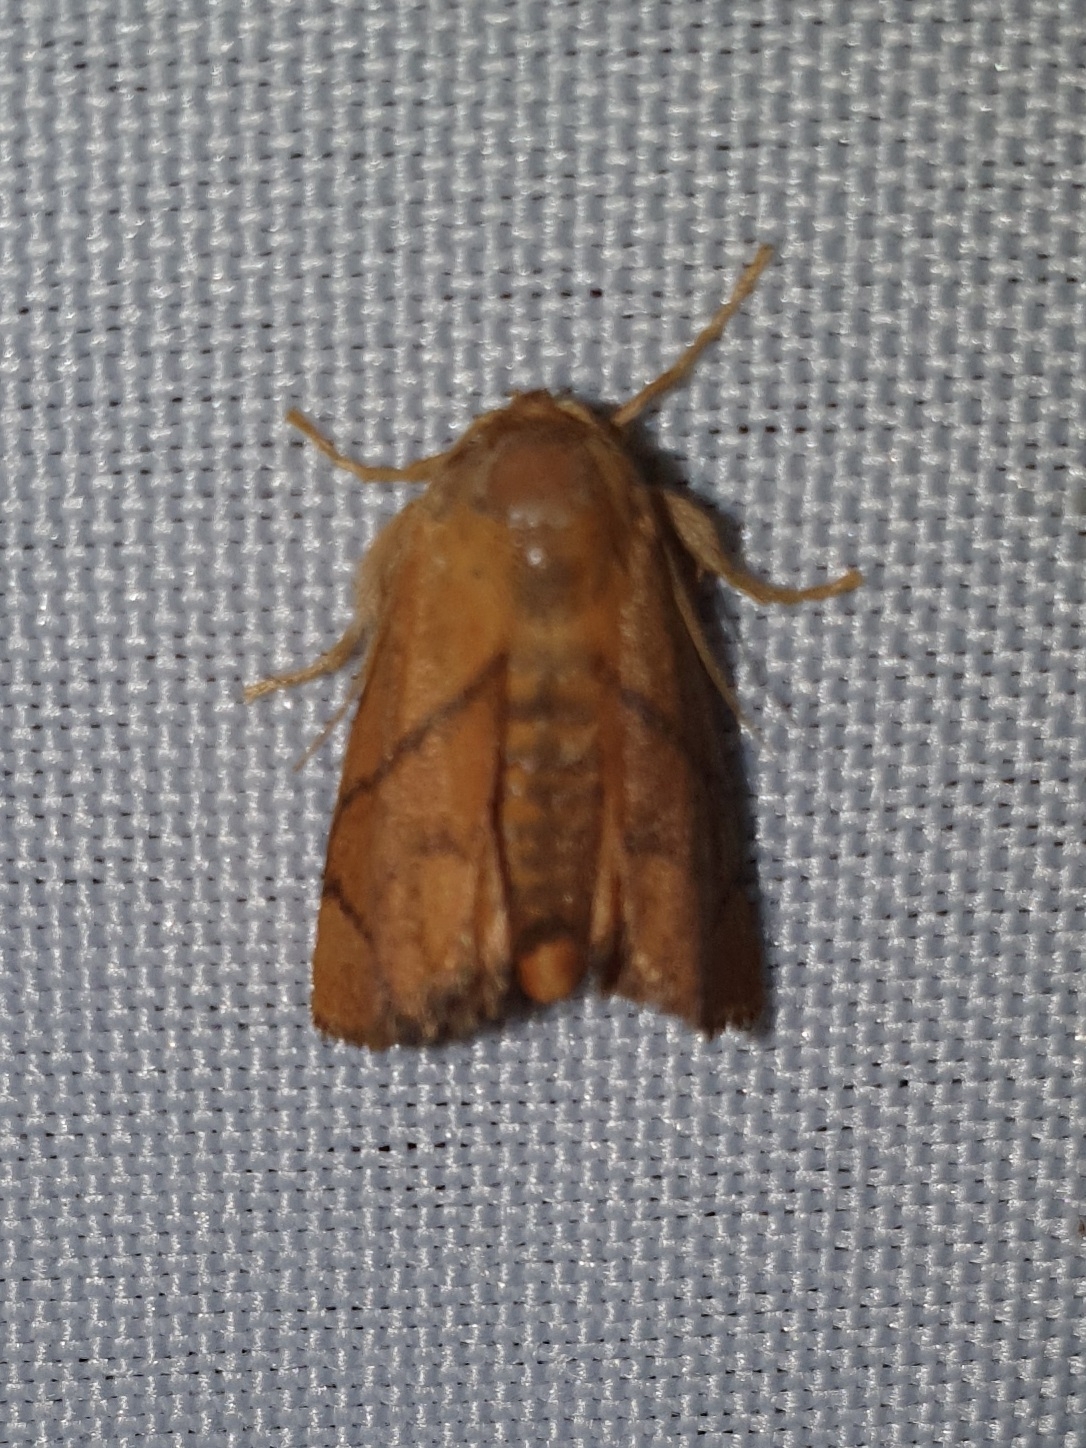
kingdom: Animalia
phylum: Arthropoda
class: Insecta
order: Lepidoptera
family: Limacodidae
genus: Apoda
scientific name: Apoda limacodes
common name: Festoon
